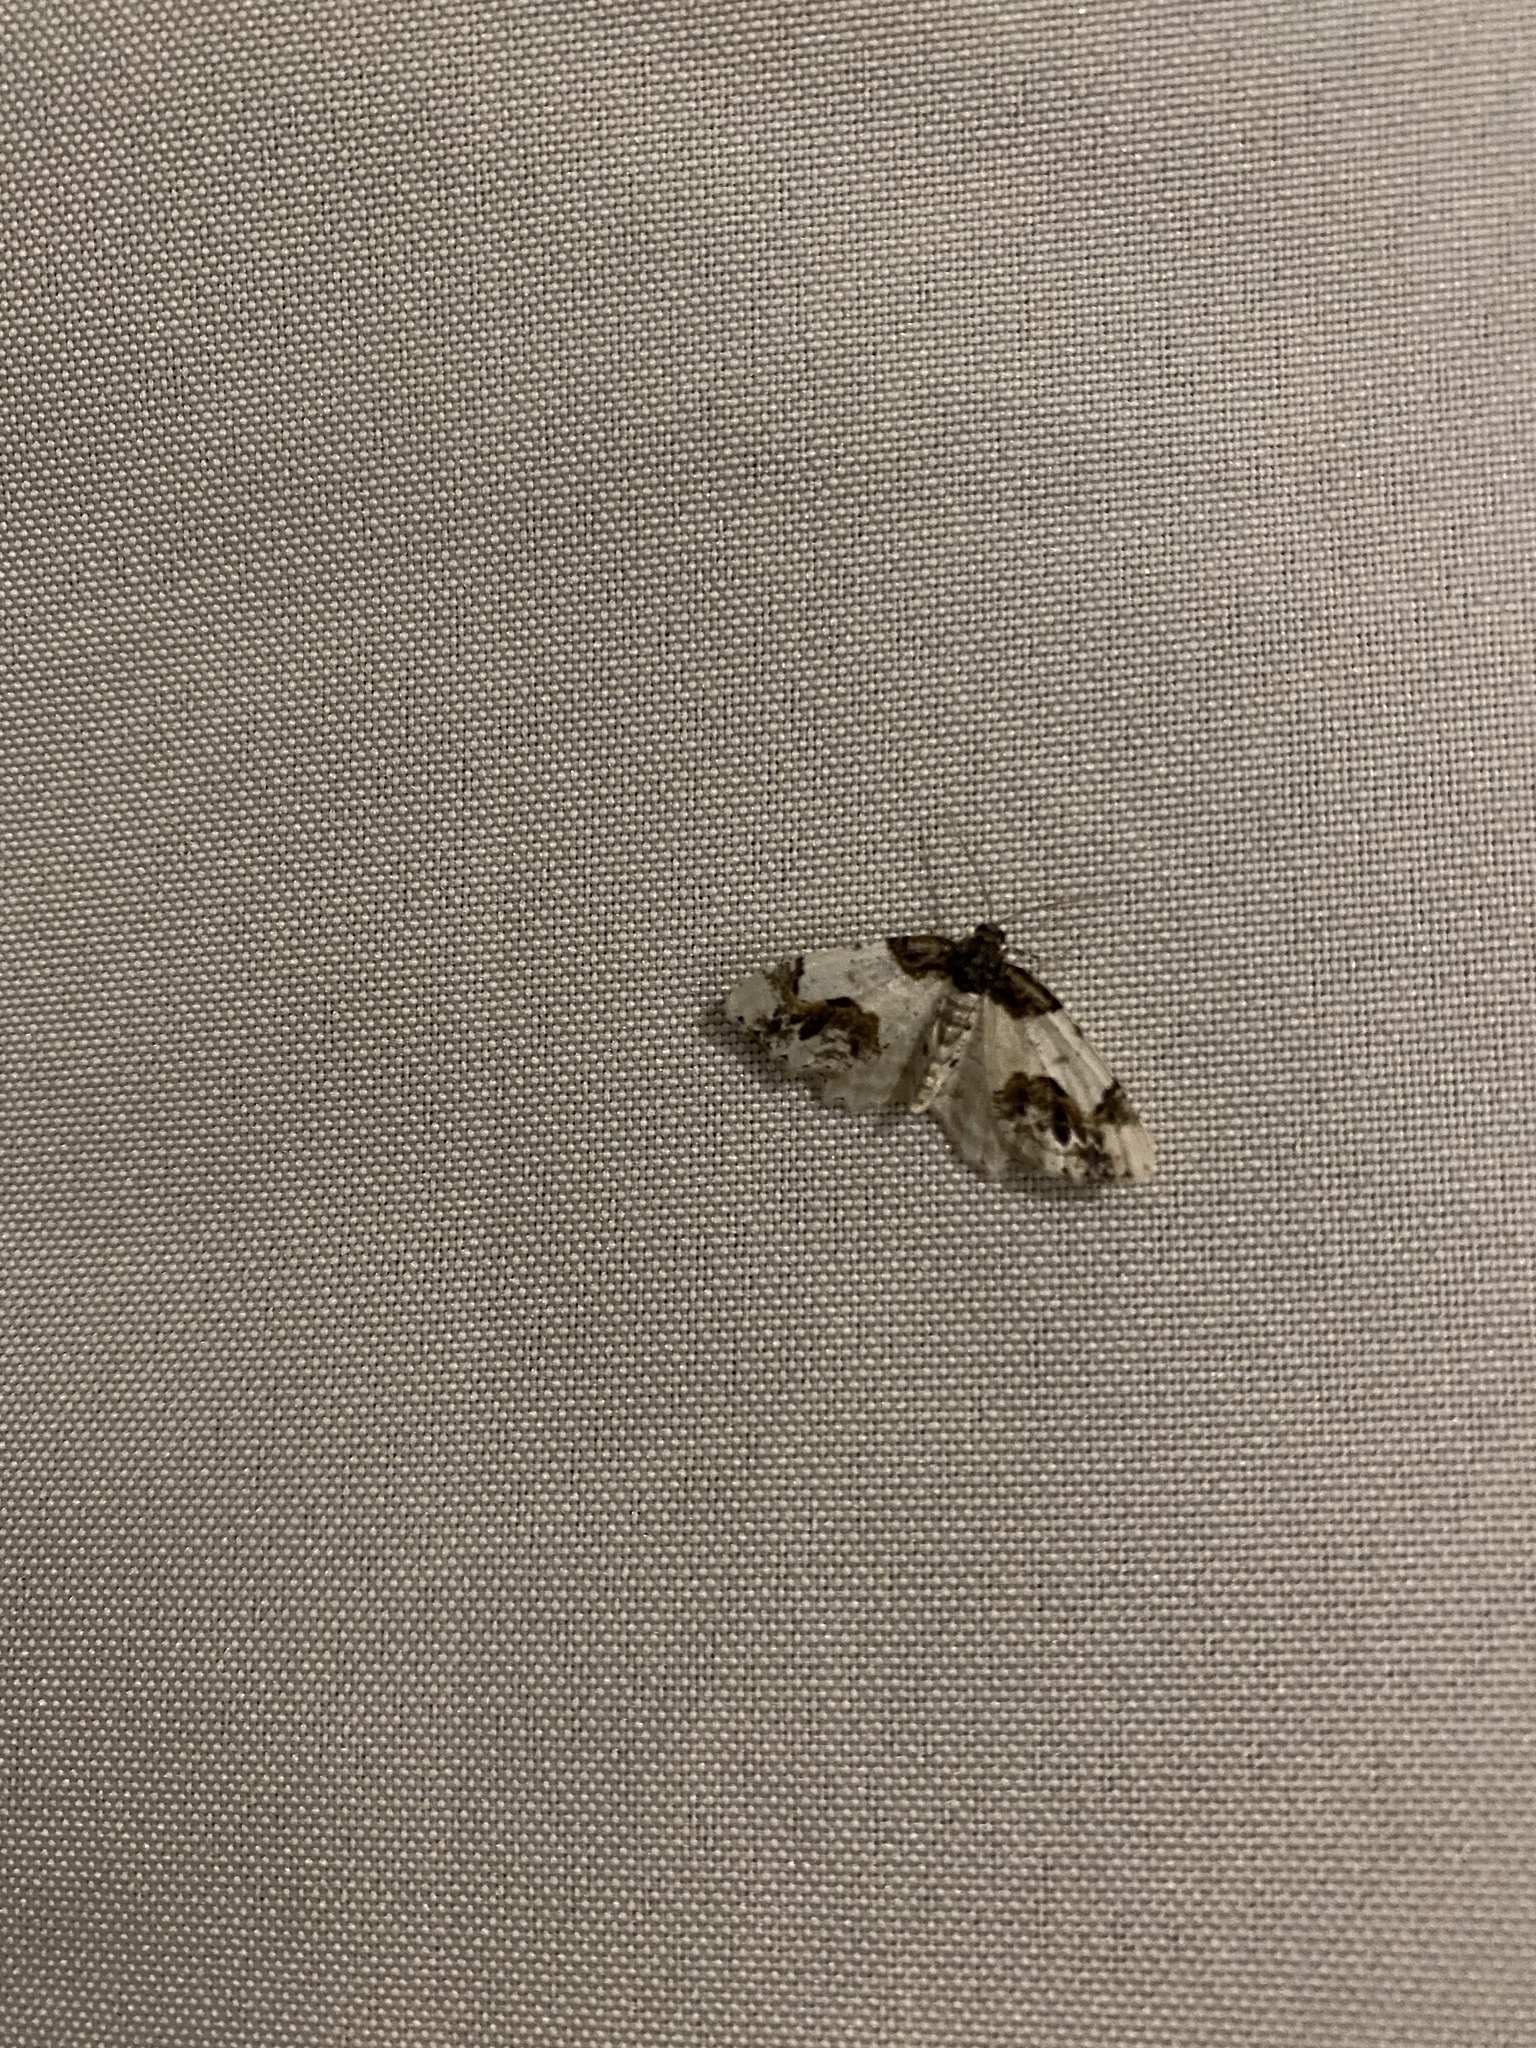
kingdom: Animalia
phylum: Arthropoda
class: Insecta
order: Lepidoptera
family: Geometridae
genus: Ligdia
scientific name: Ligdia adustata
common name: Scorched carpet
